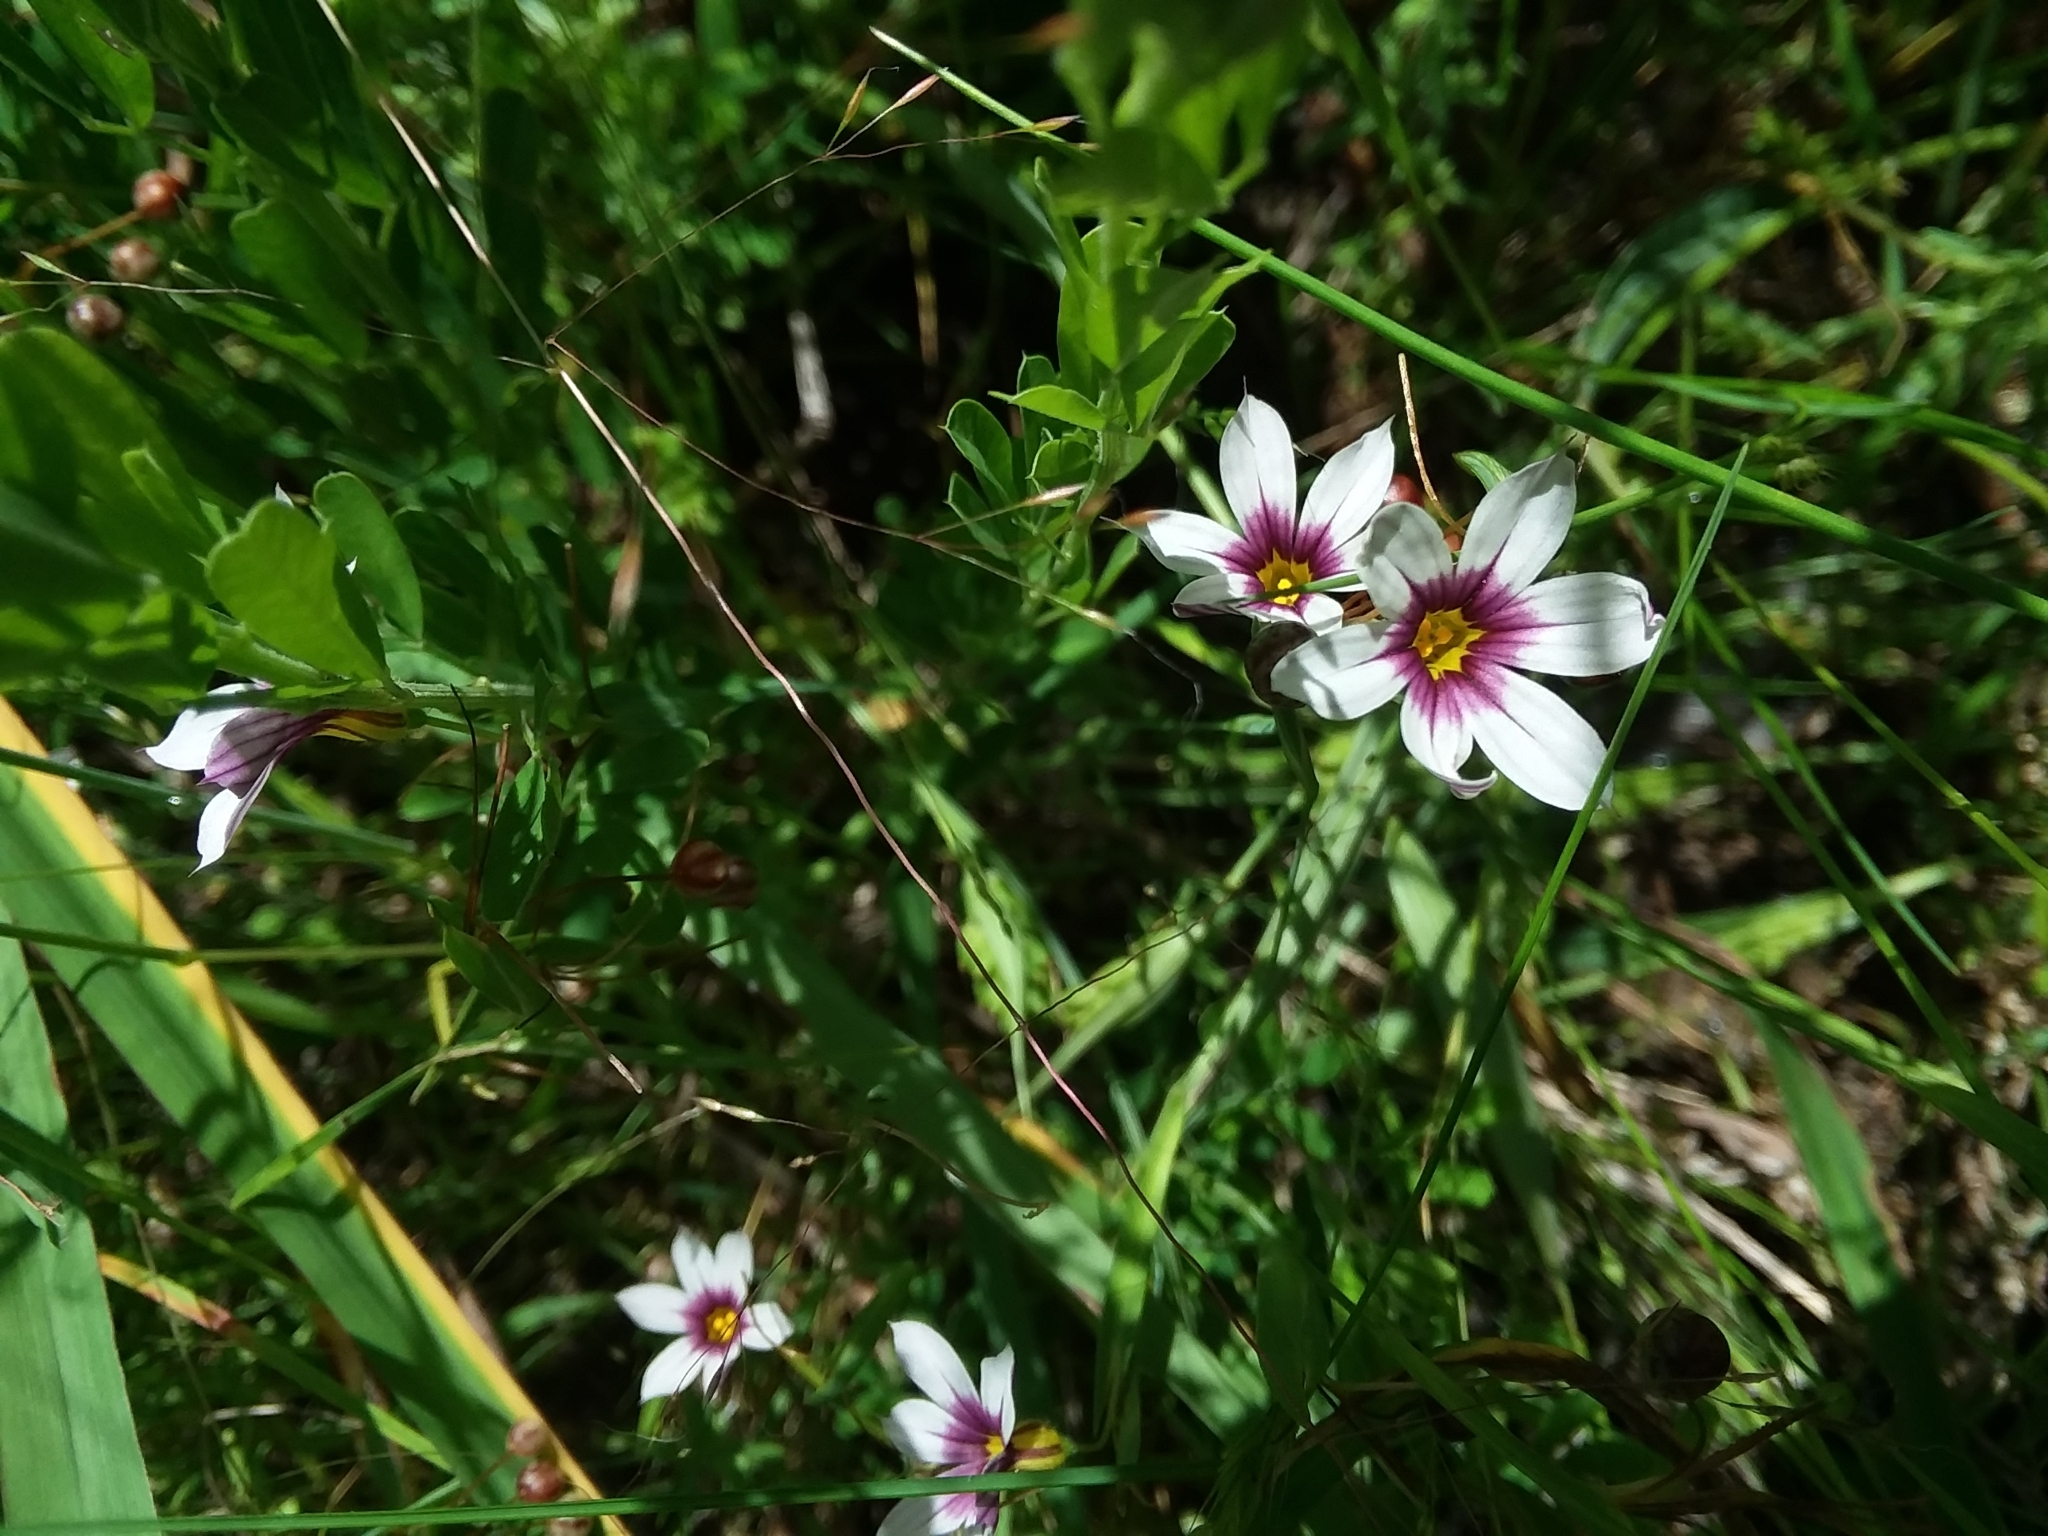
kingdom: Plantae
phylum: Tracheophyta
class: Liliopsida
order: Asparagales
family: Iridaceae
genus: Sisyrinchium
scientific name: Sisyrinchium micranthum
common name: Bermuda pigroot
